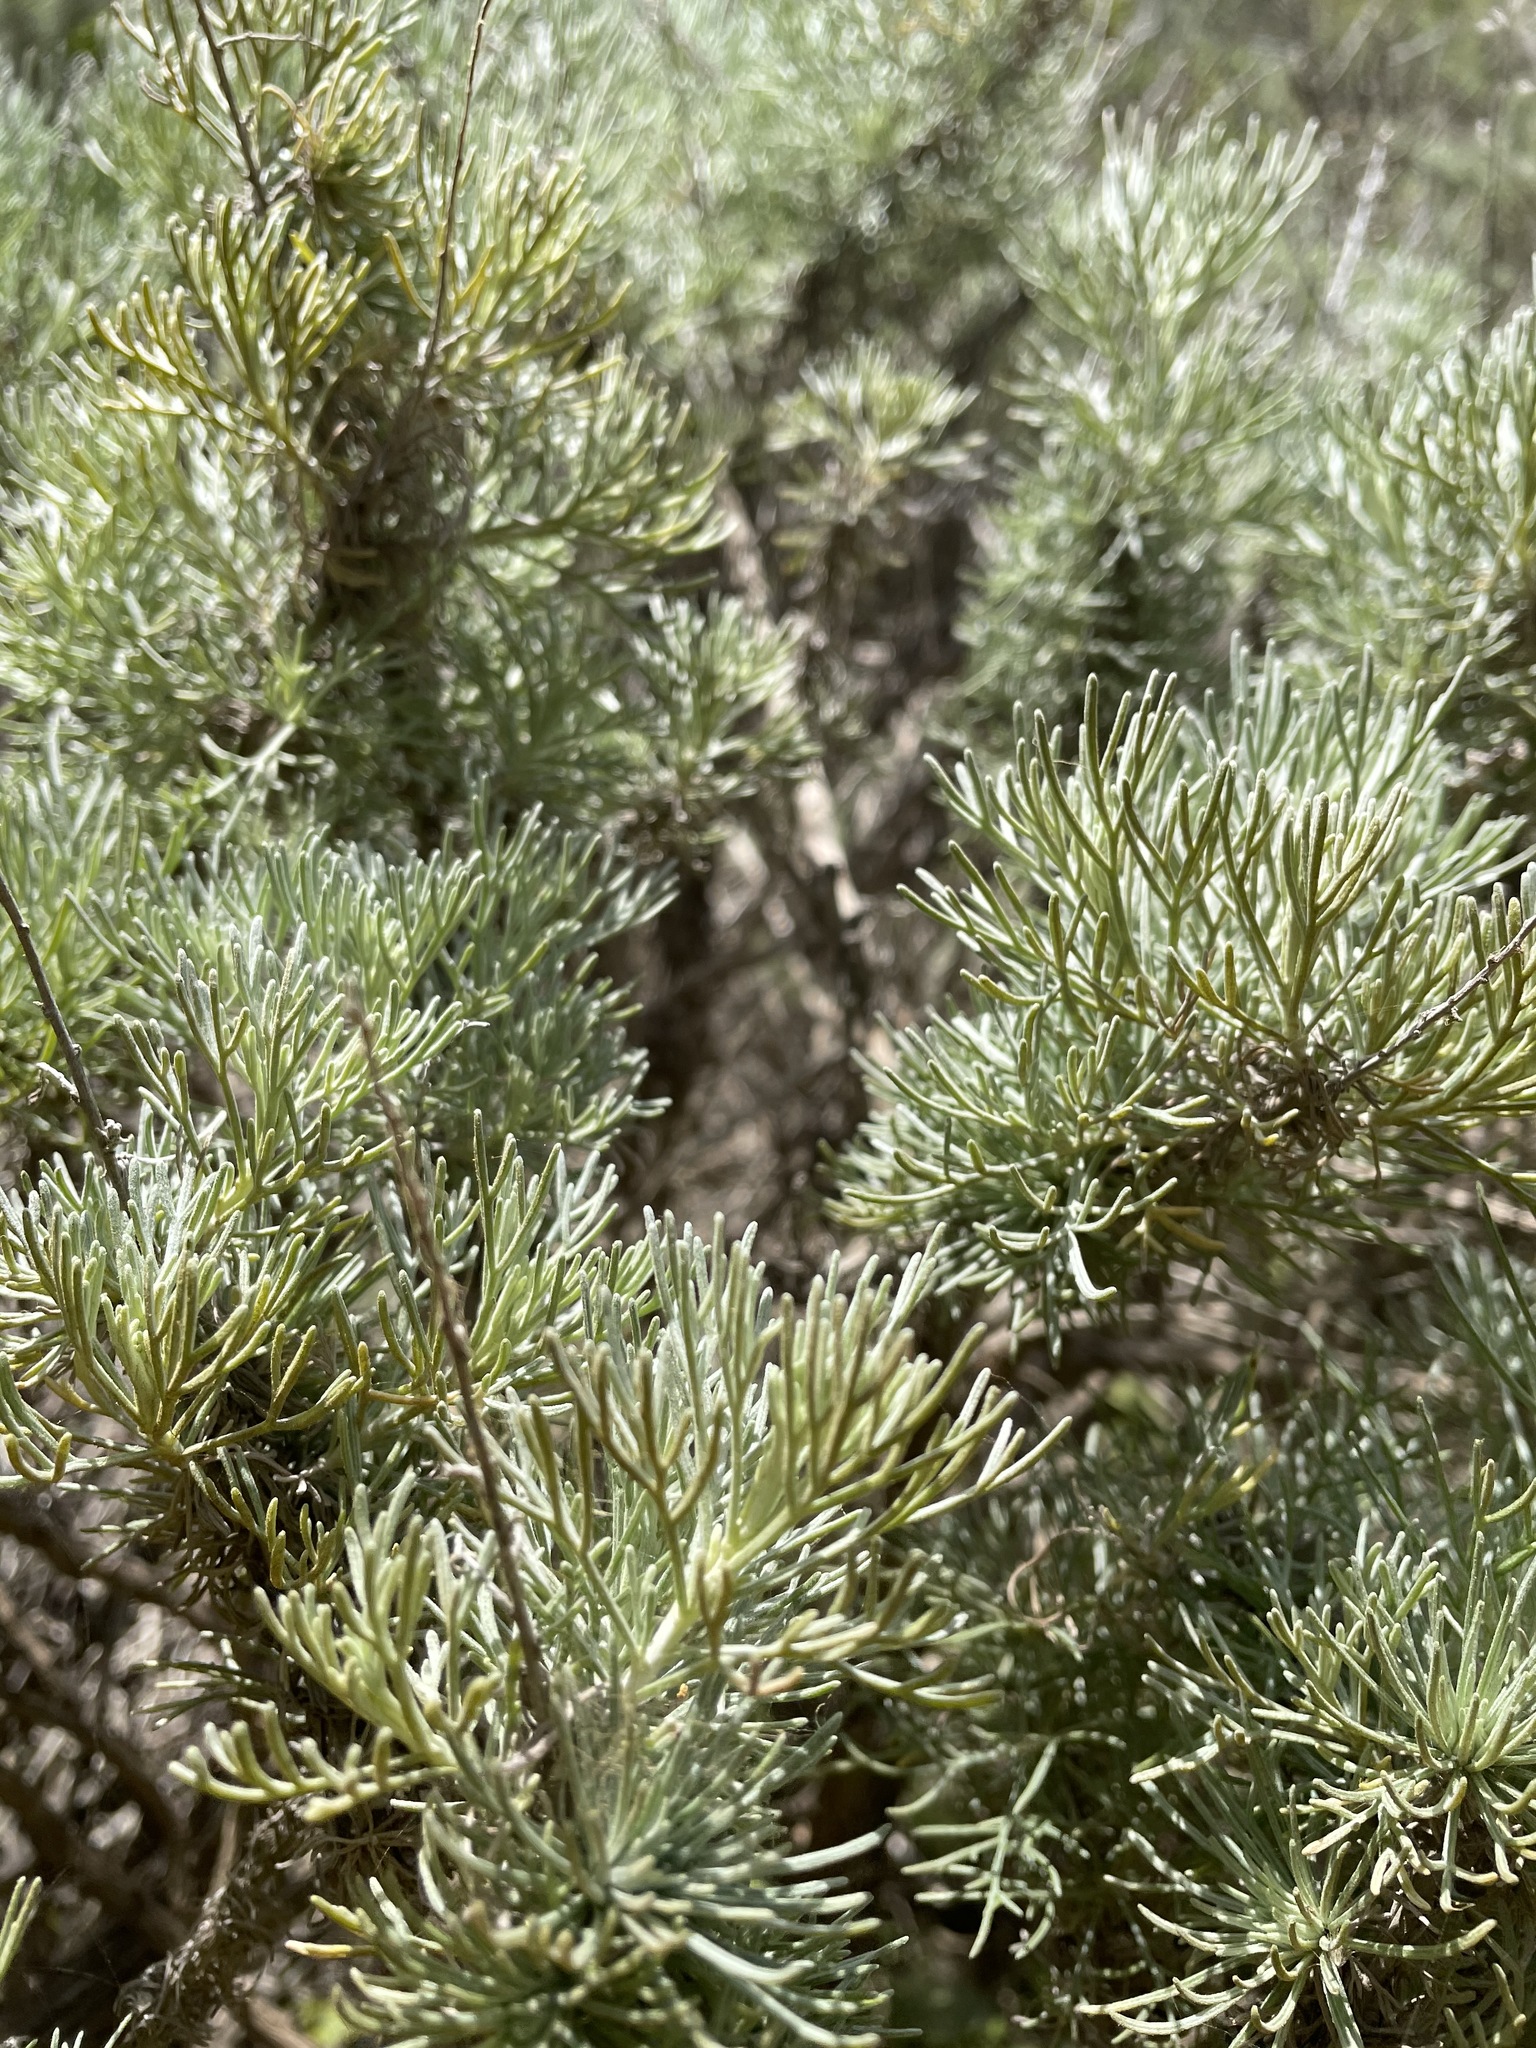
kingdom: Plantae
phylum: Tracheophyta
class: Magnoliopsida
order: Asterales
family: Asteraceae
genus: Artemisia
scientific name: Artemisia californica
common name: California sagebrush
